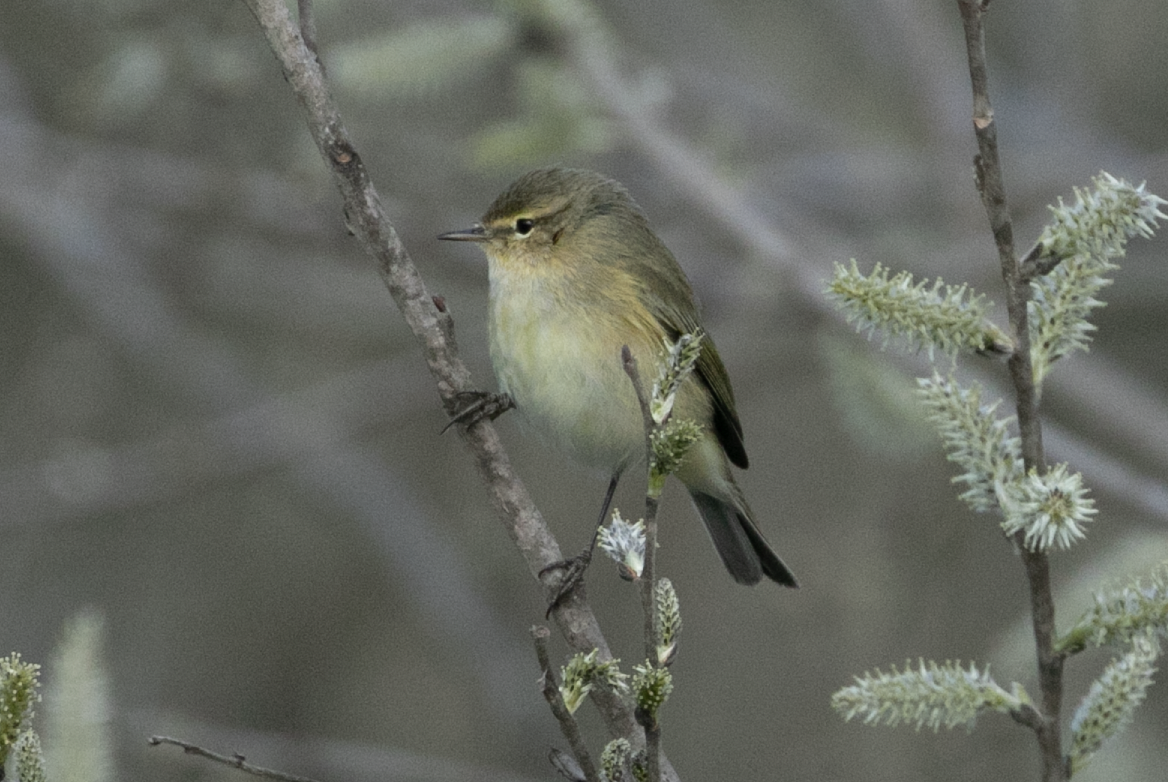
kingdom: Animalia
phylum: Chordata
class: Aves
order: Passeriformes
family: Phylloscopidae
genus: Phylloscopus
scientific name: Phylloscopus collybita
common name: Common chiffchaff
